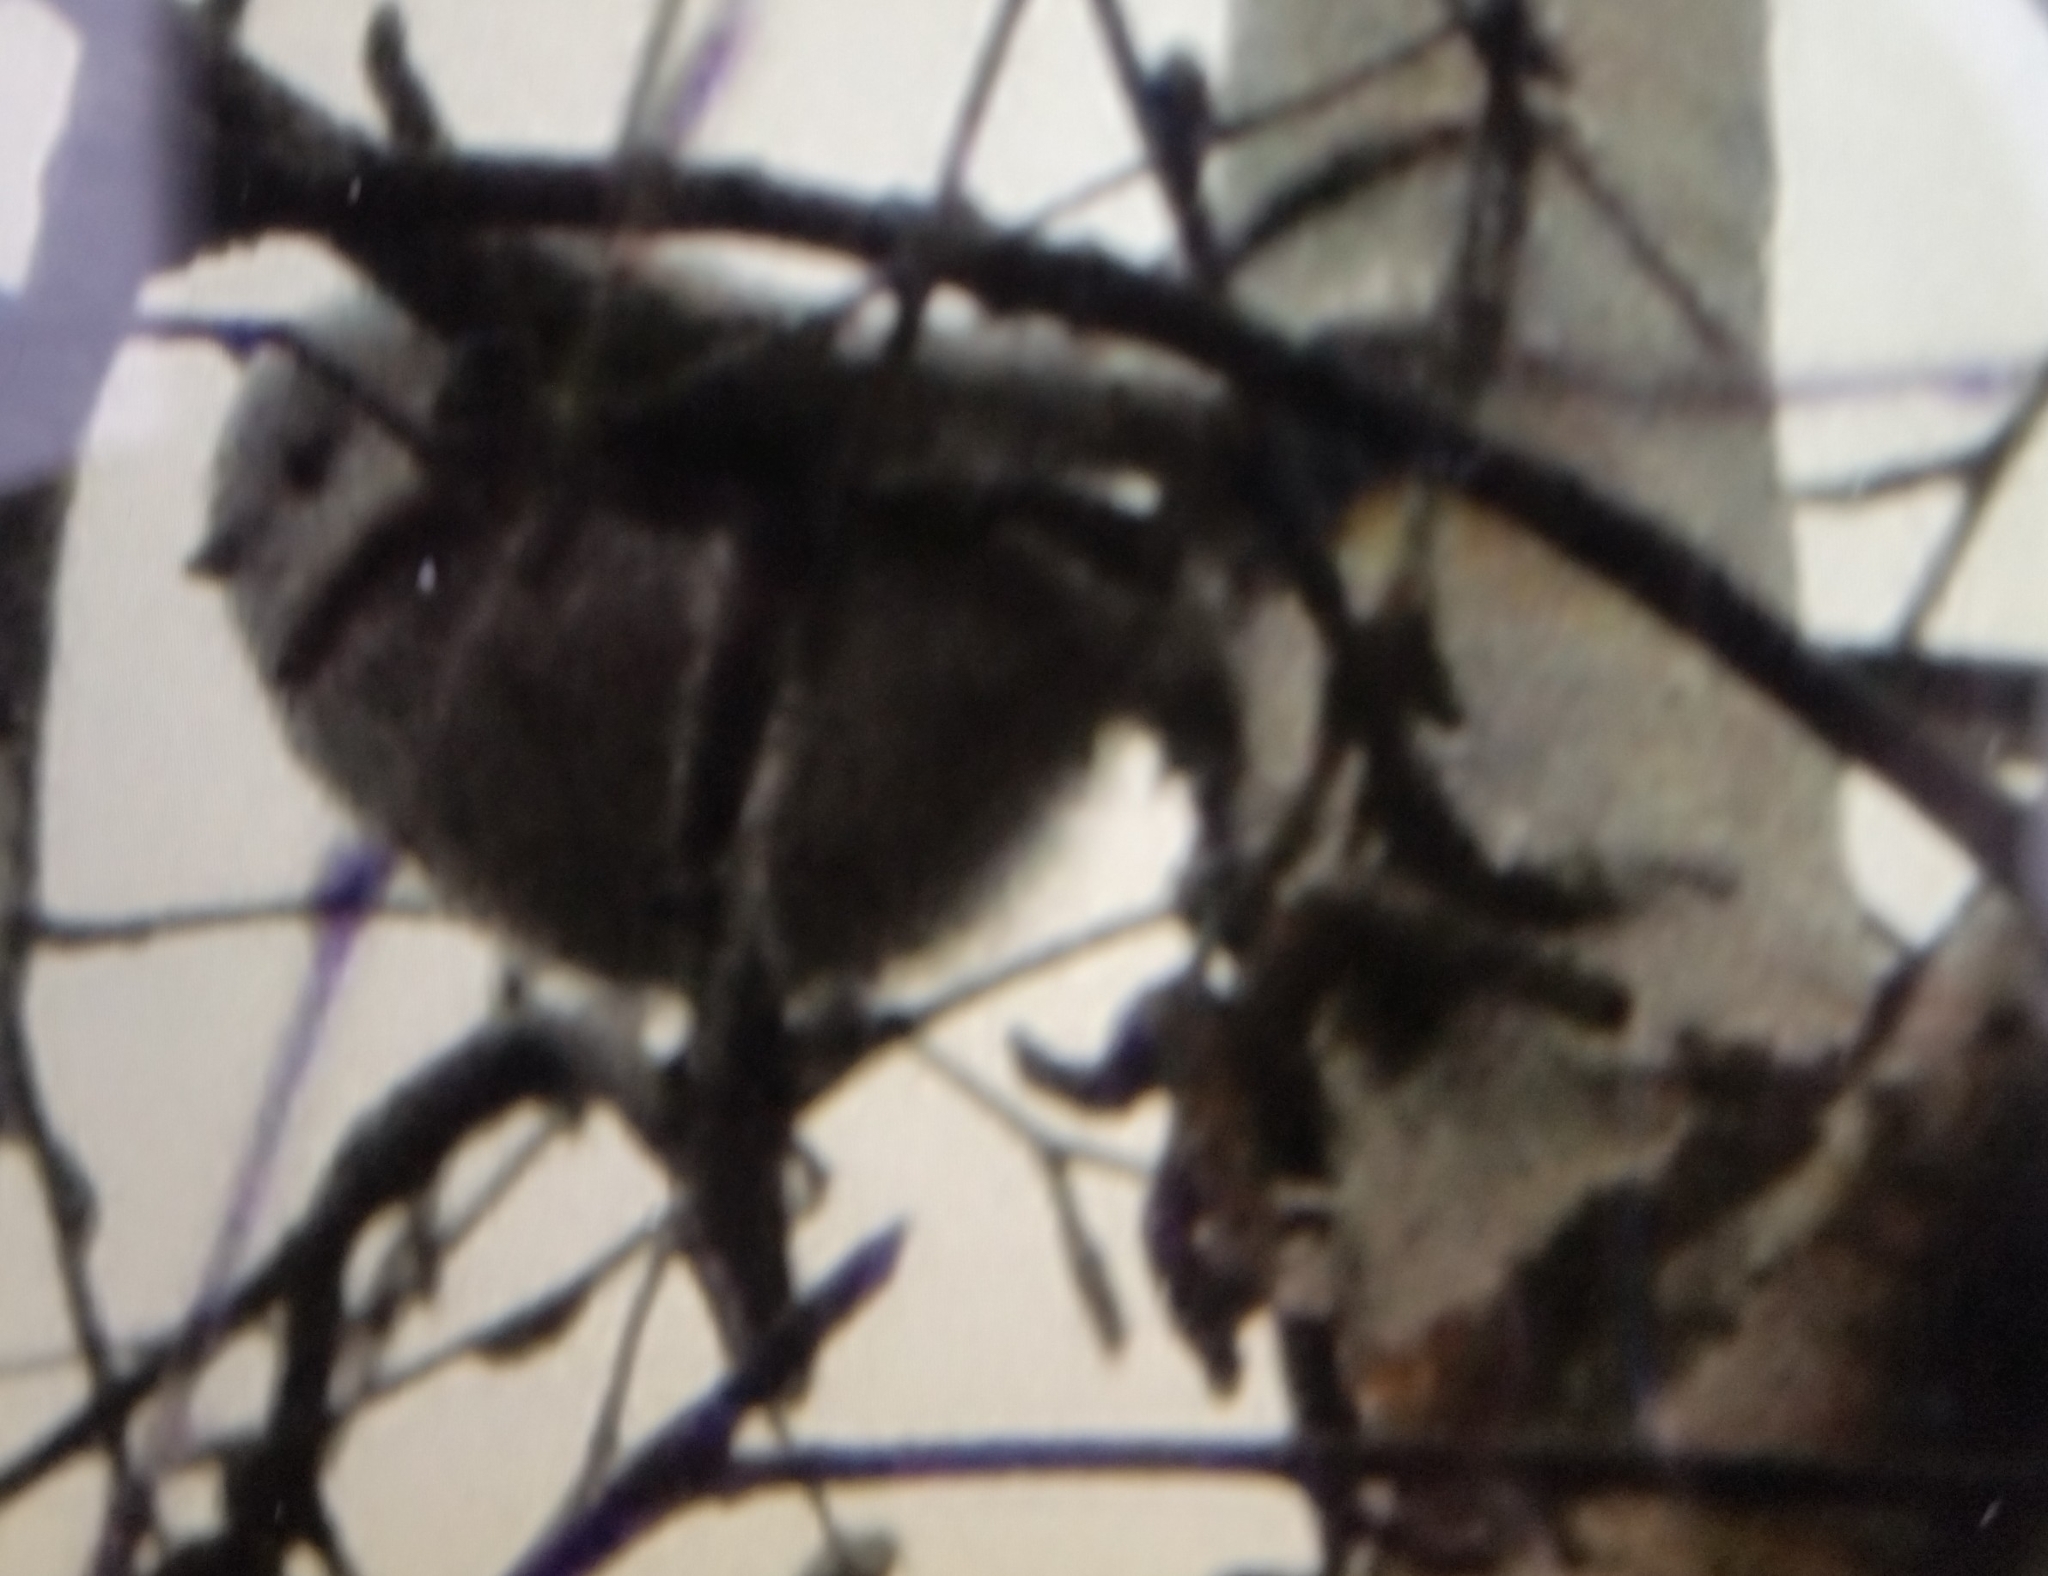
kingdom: Animalia
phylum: Chordata
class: Aves
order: Passeriformes
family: Aegithalidae
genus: Aegithalos
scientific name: Aegithalos caudatus
